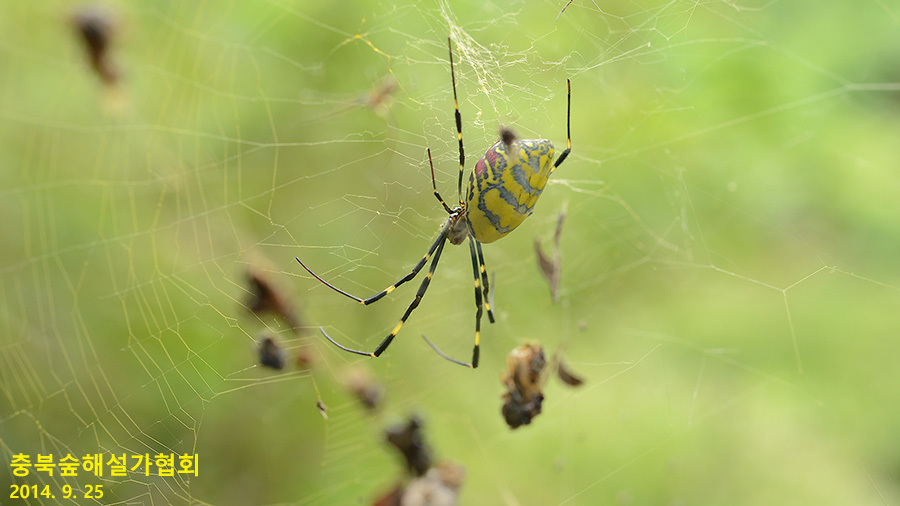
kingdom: Animalia
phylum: Arthropoda
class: Arachnida
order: Araneae
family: Araneidae
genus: Trichonephila
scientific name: Trichonephila clavata
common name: Jorō spider
